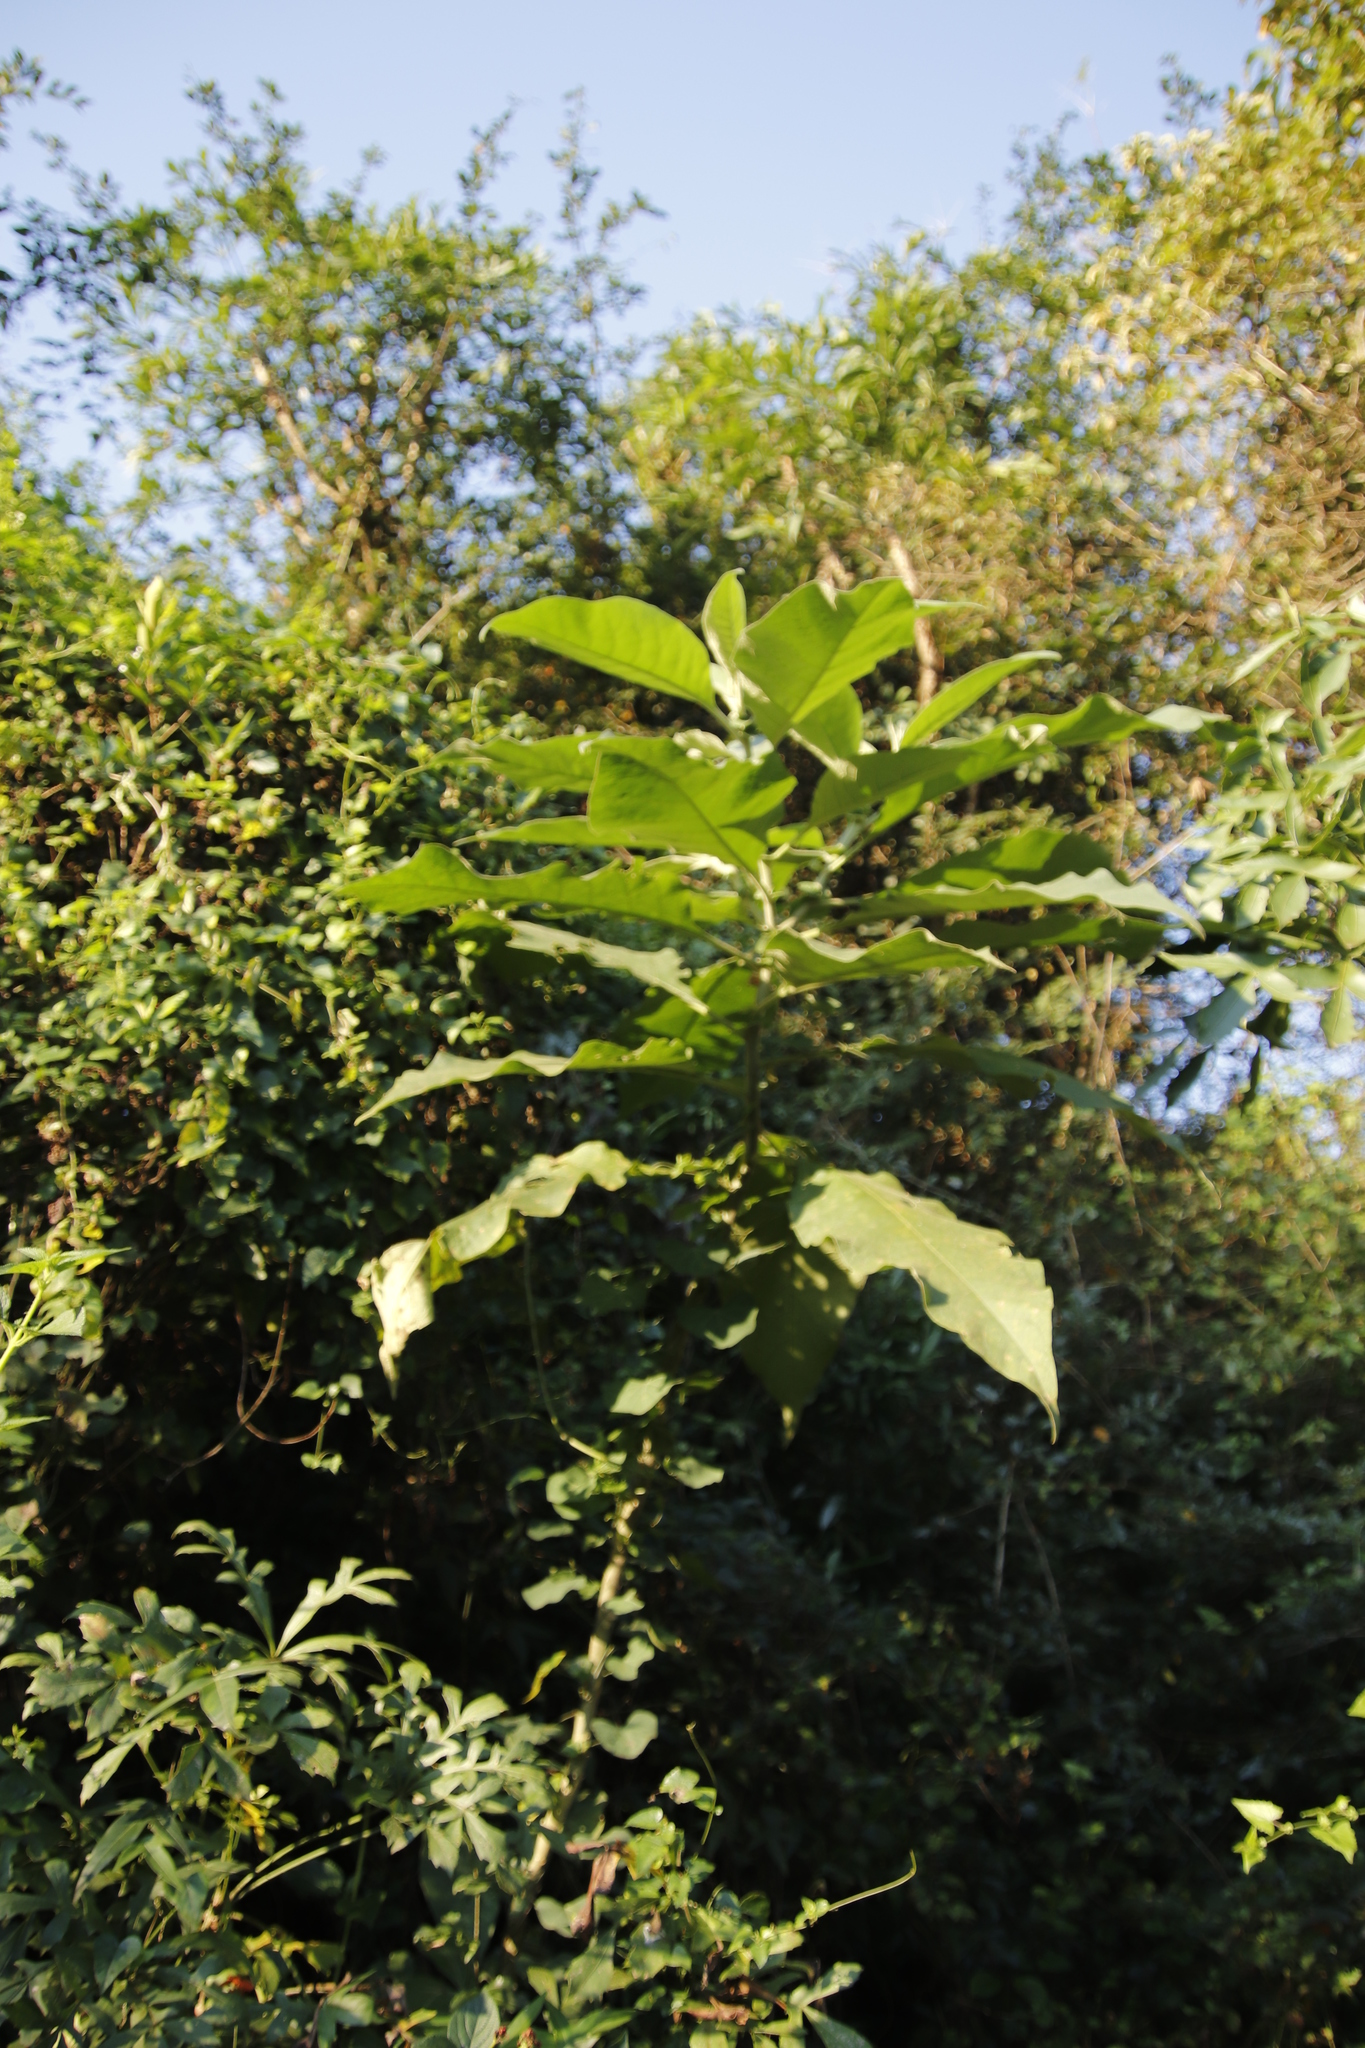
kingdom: Plantae
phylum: Tracheophyta
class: Magnoliopsida
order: Solanales
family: Solanaceae
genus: Solanum
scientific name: Solanum mauritianum
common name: Earleaf nightshade
